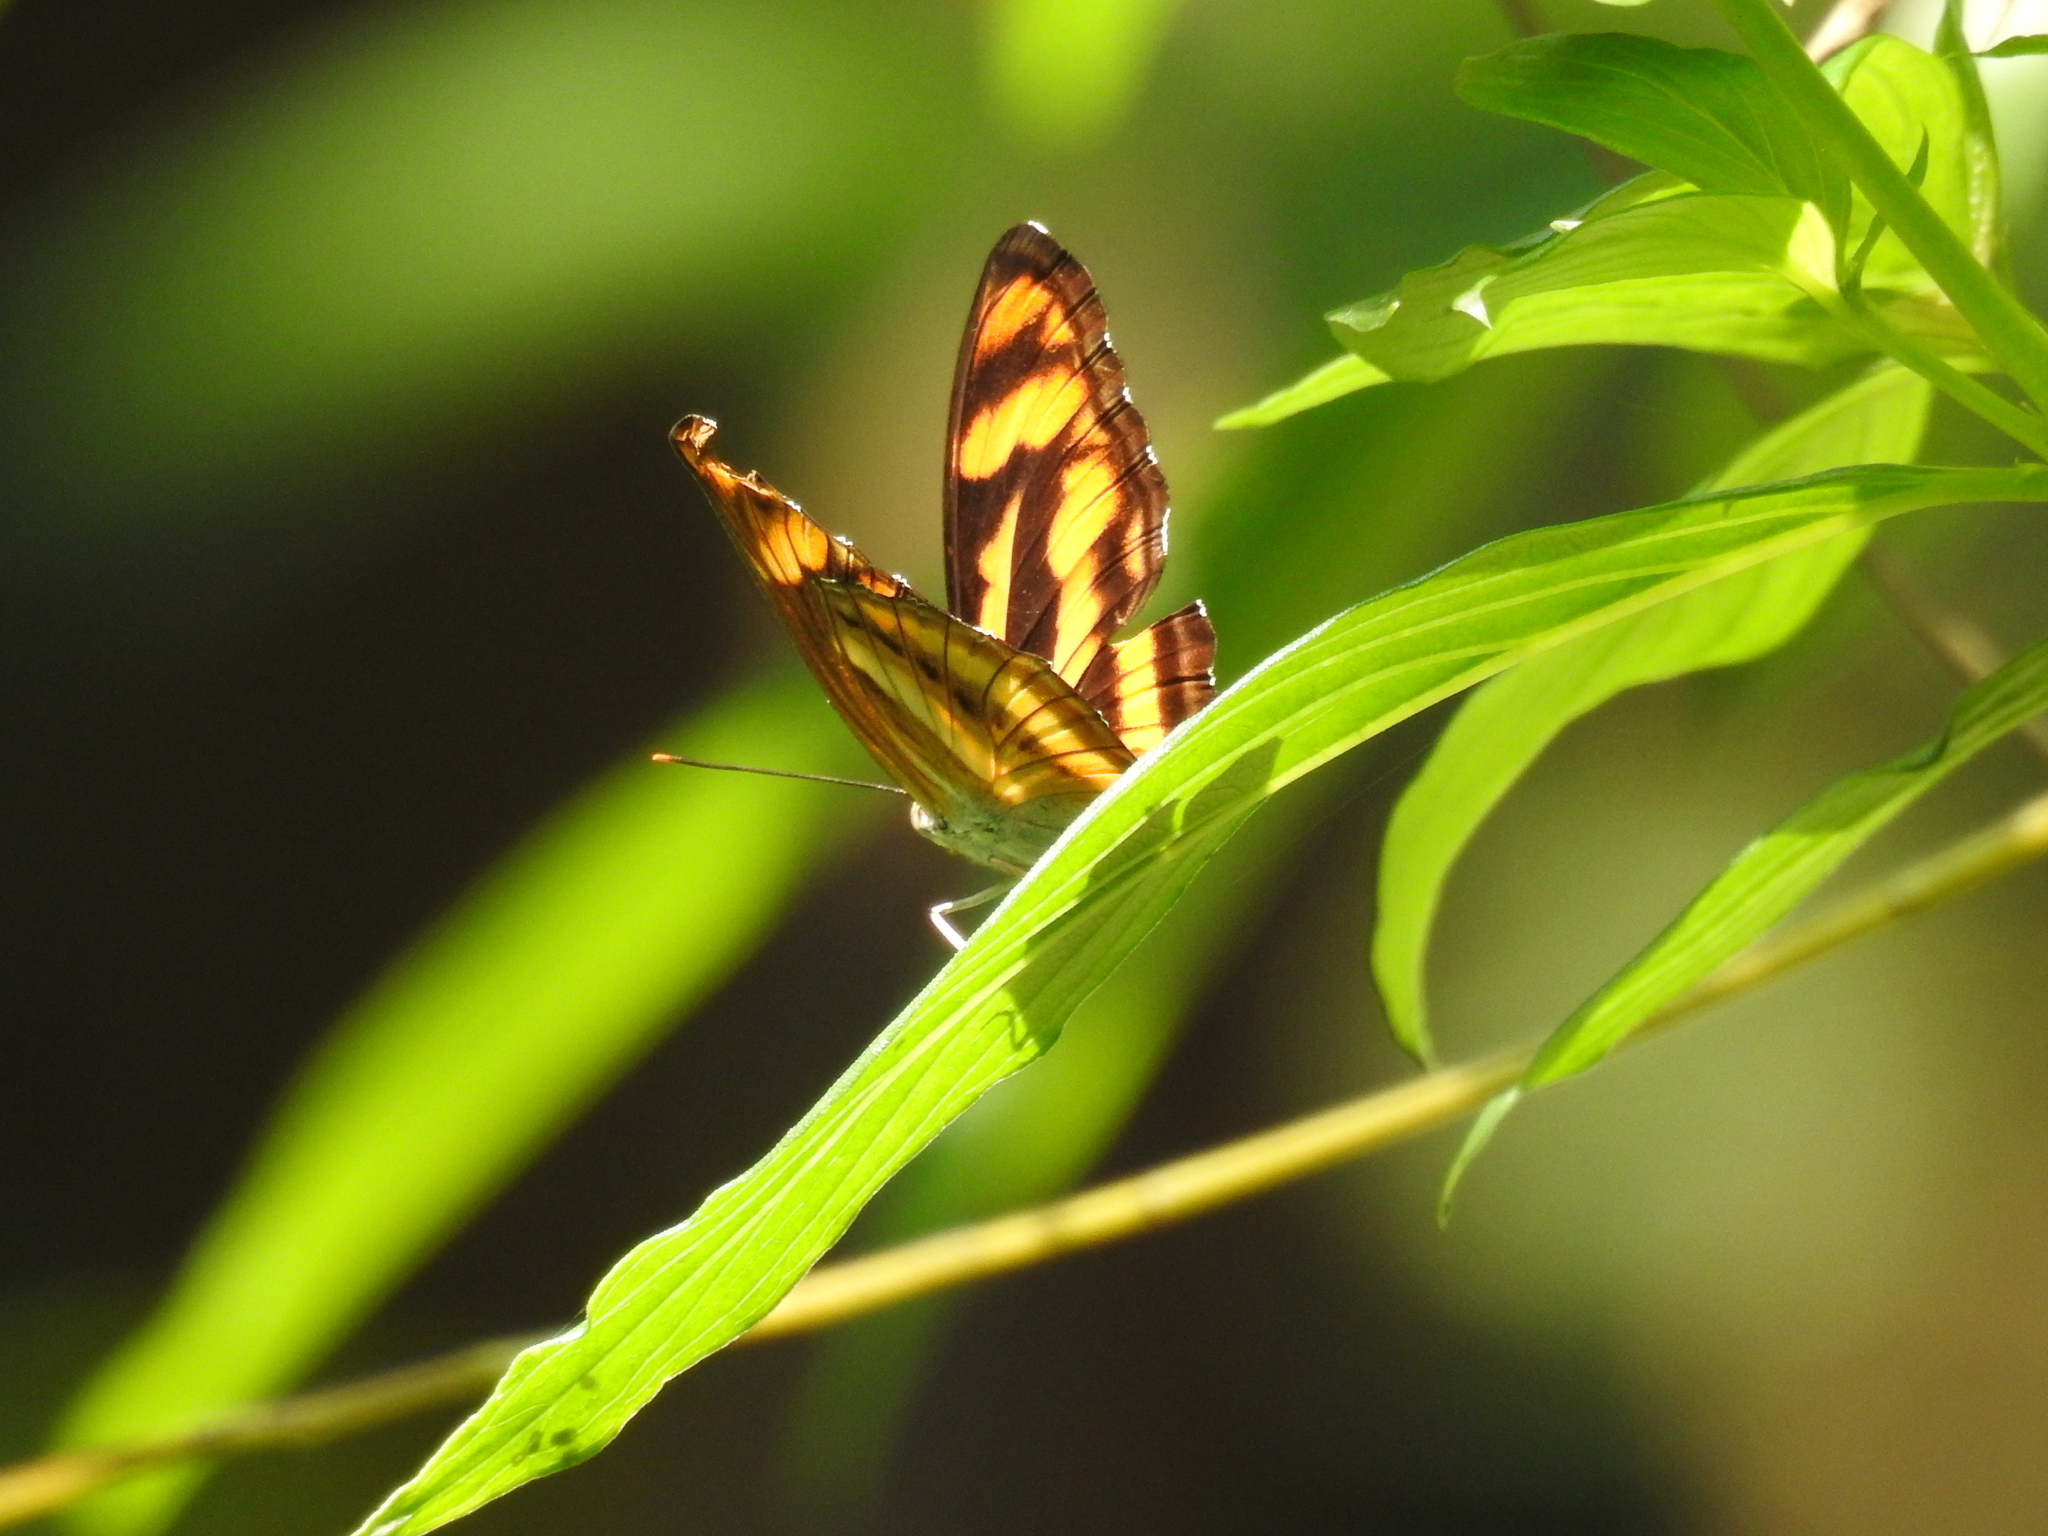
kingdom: Animalia
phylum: Arthropoda
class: Insecta
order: Lepidoptera
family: Nymphalidae
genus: Parathyma
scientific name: Parathyma nefte
